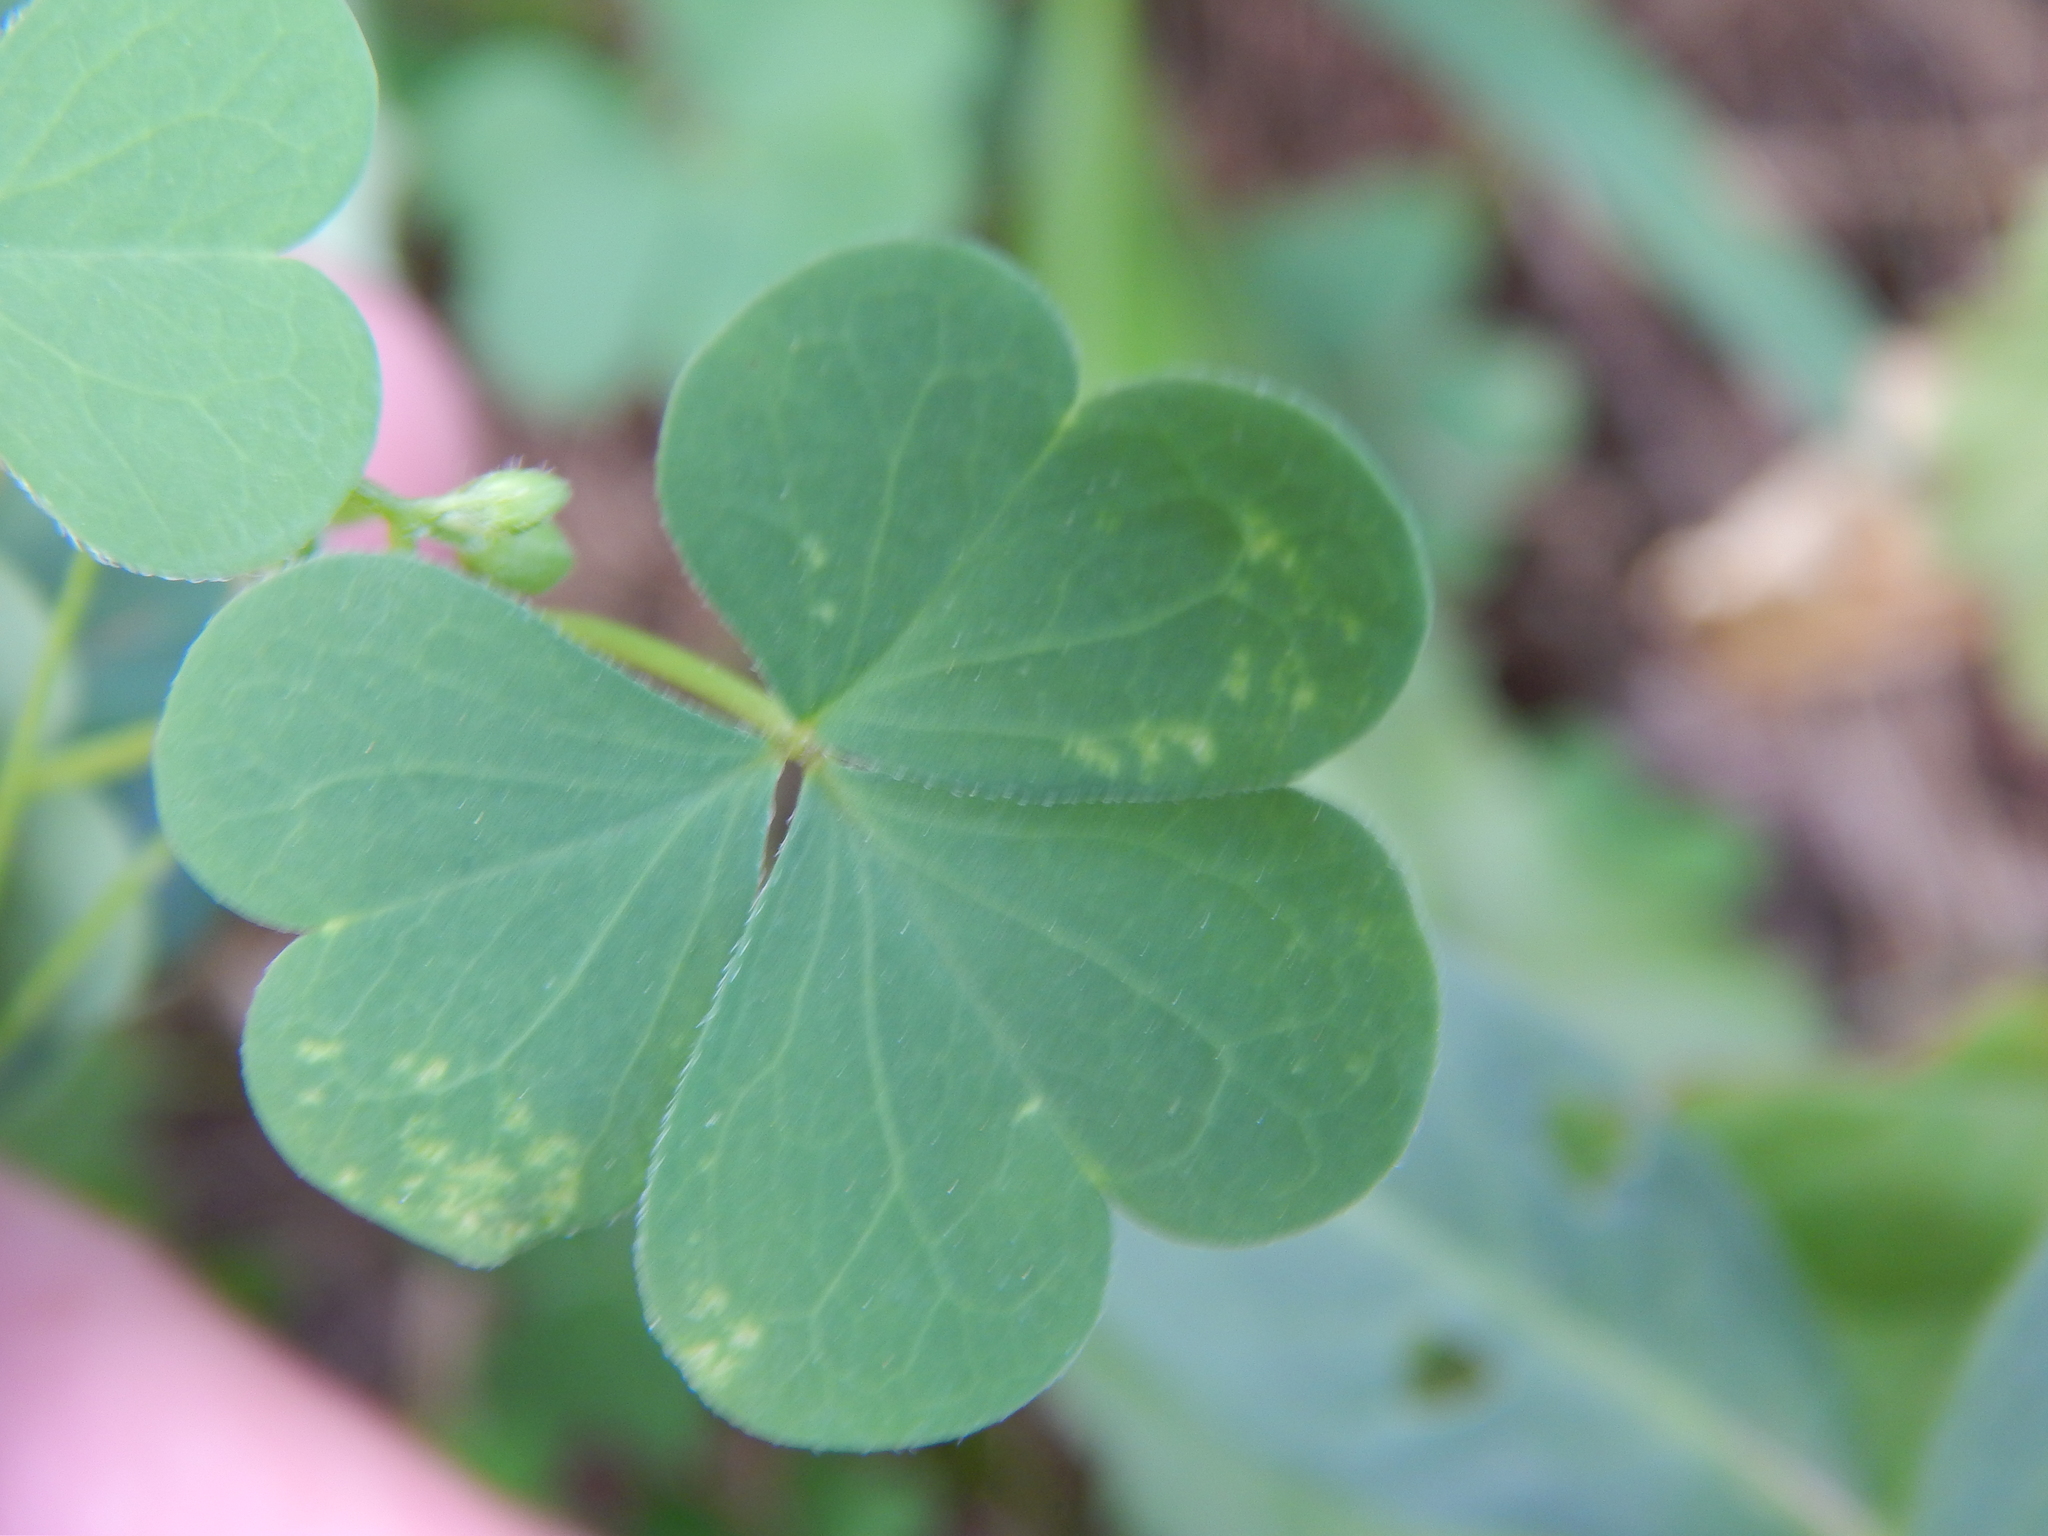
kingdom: Plantae
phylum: Tracheophyta
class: Magnoliopsida
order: Oxalidales
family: Oxalidaceae
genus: Oxalis
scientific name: Oxalis stricta
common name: Upright yellow-sorrel
